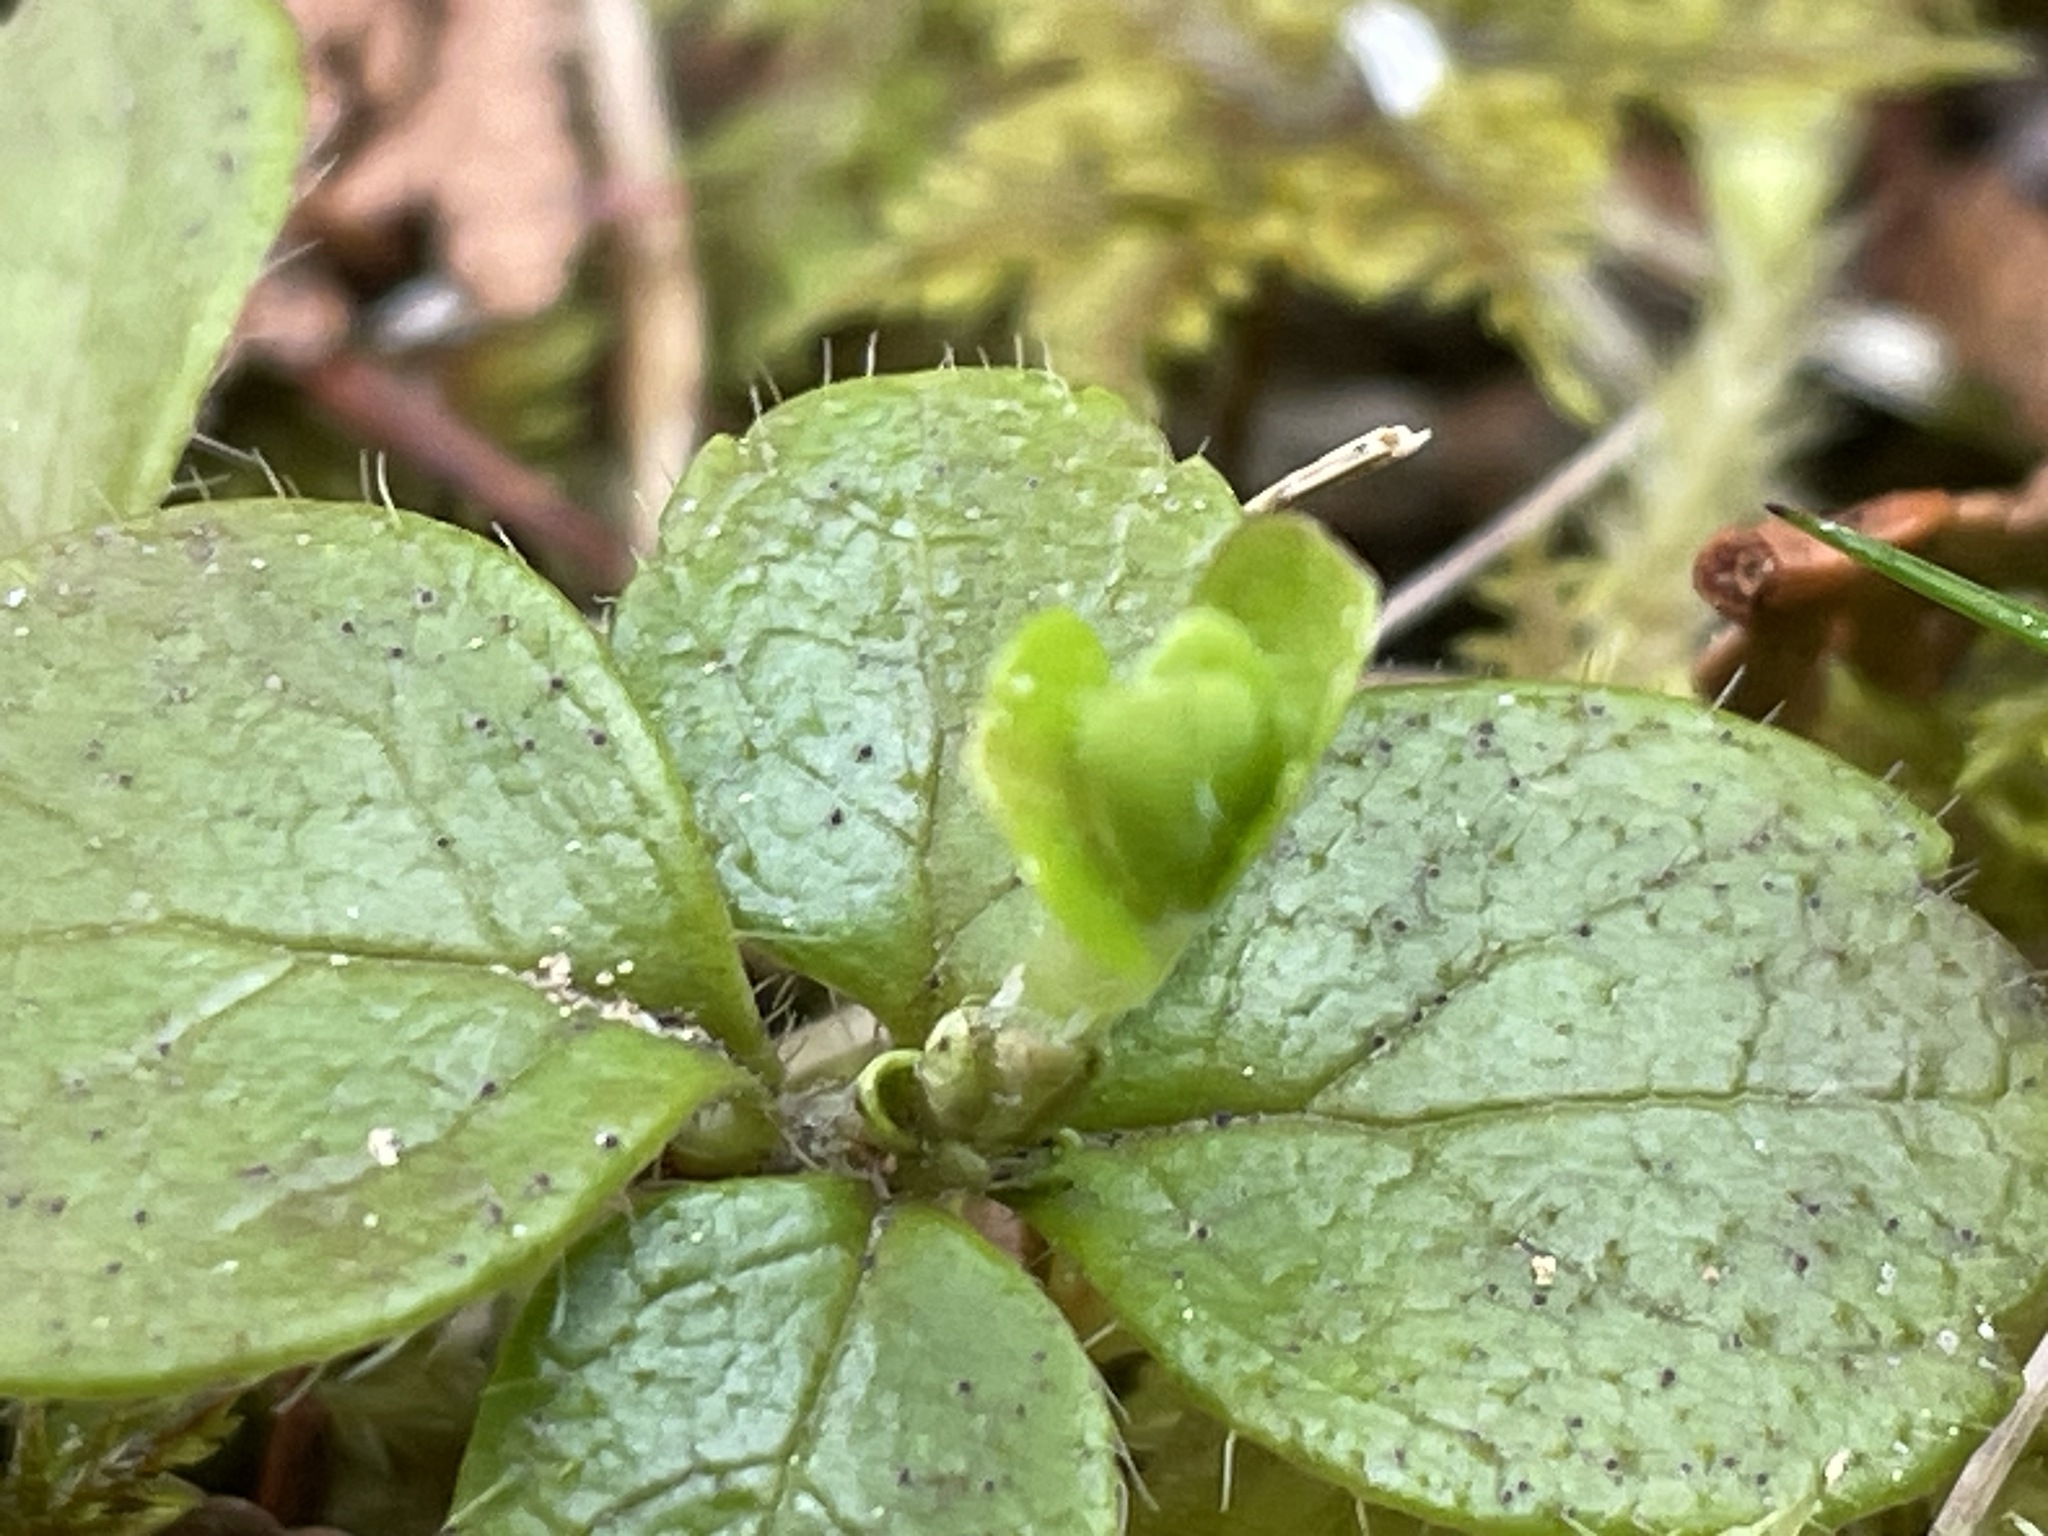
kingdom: Plantae
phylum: Tracheophyta
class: Magnoliopsida
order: Dipsacales
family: Caprifoliaceae
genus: Linnaea
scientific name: Linnaea borealis
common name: Twinflower
